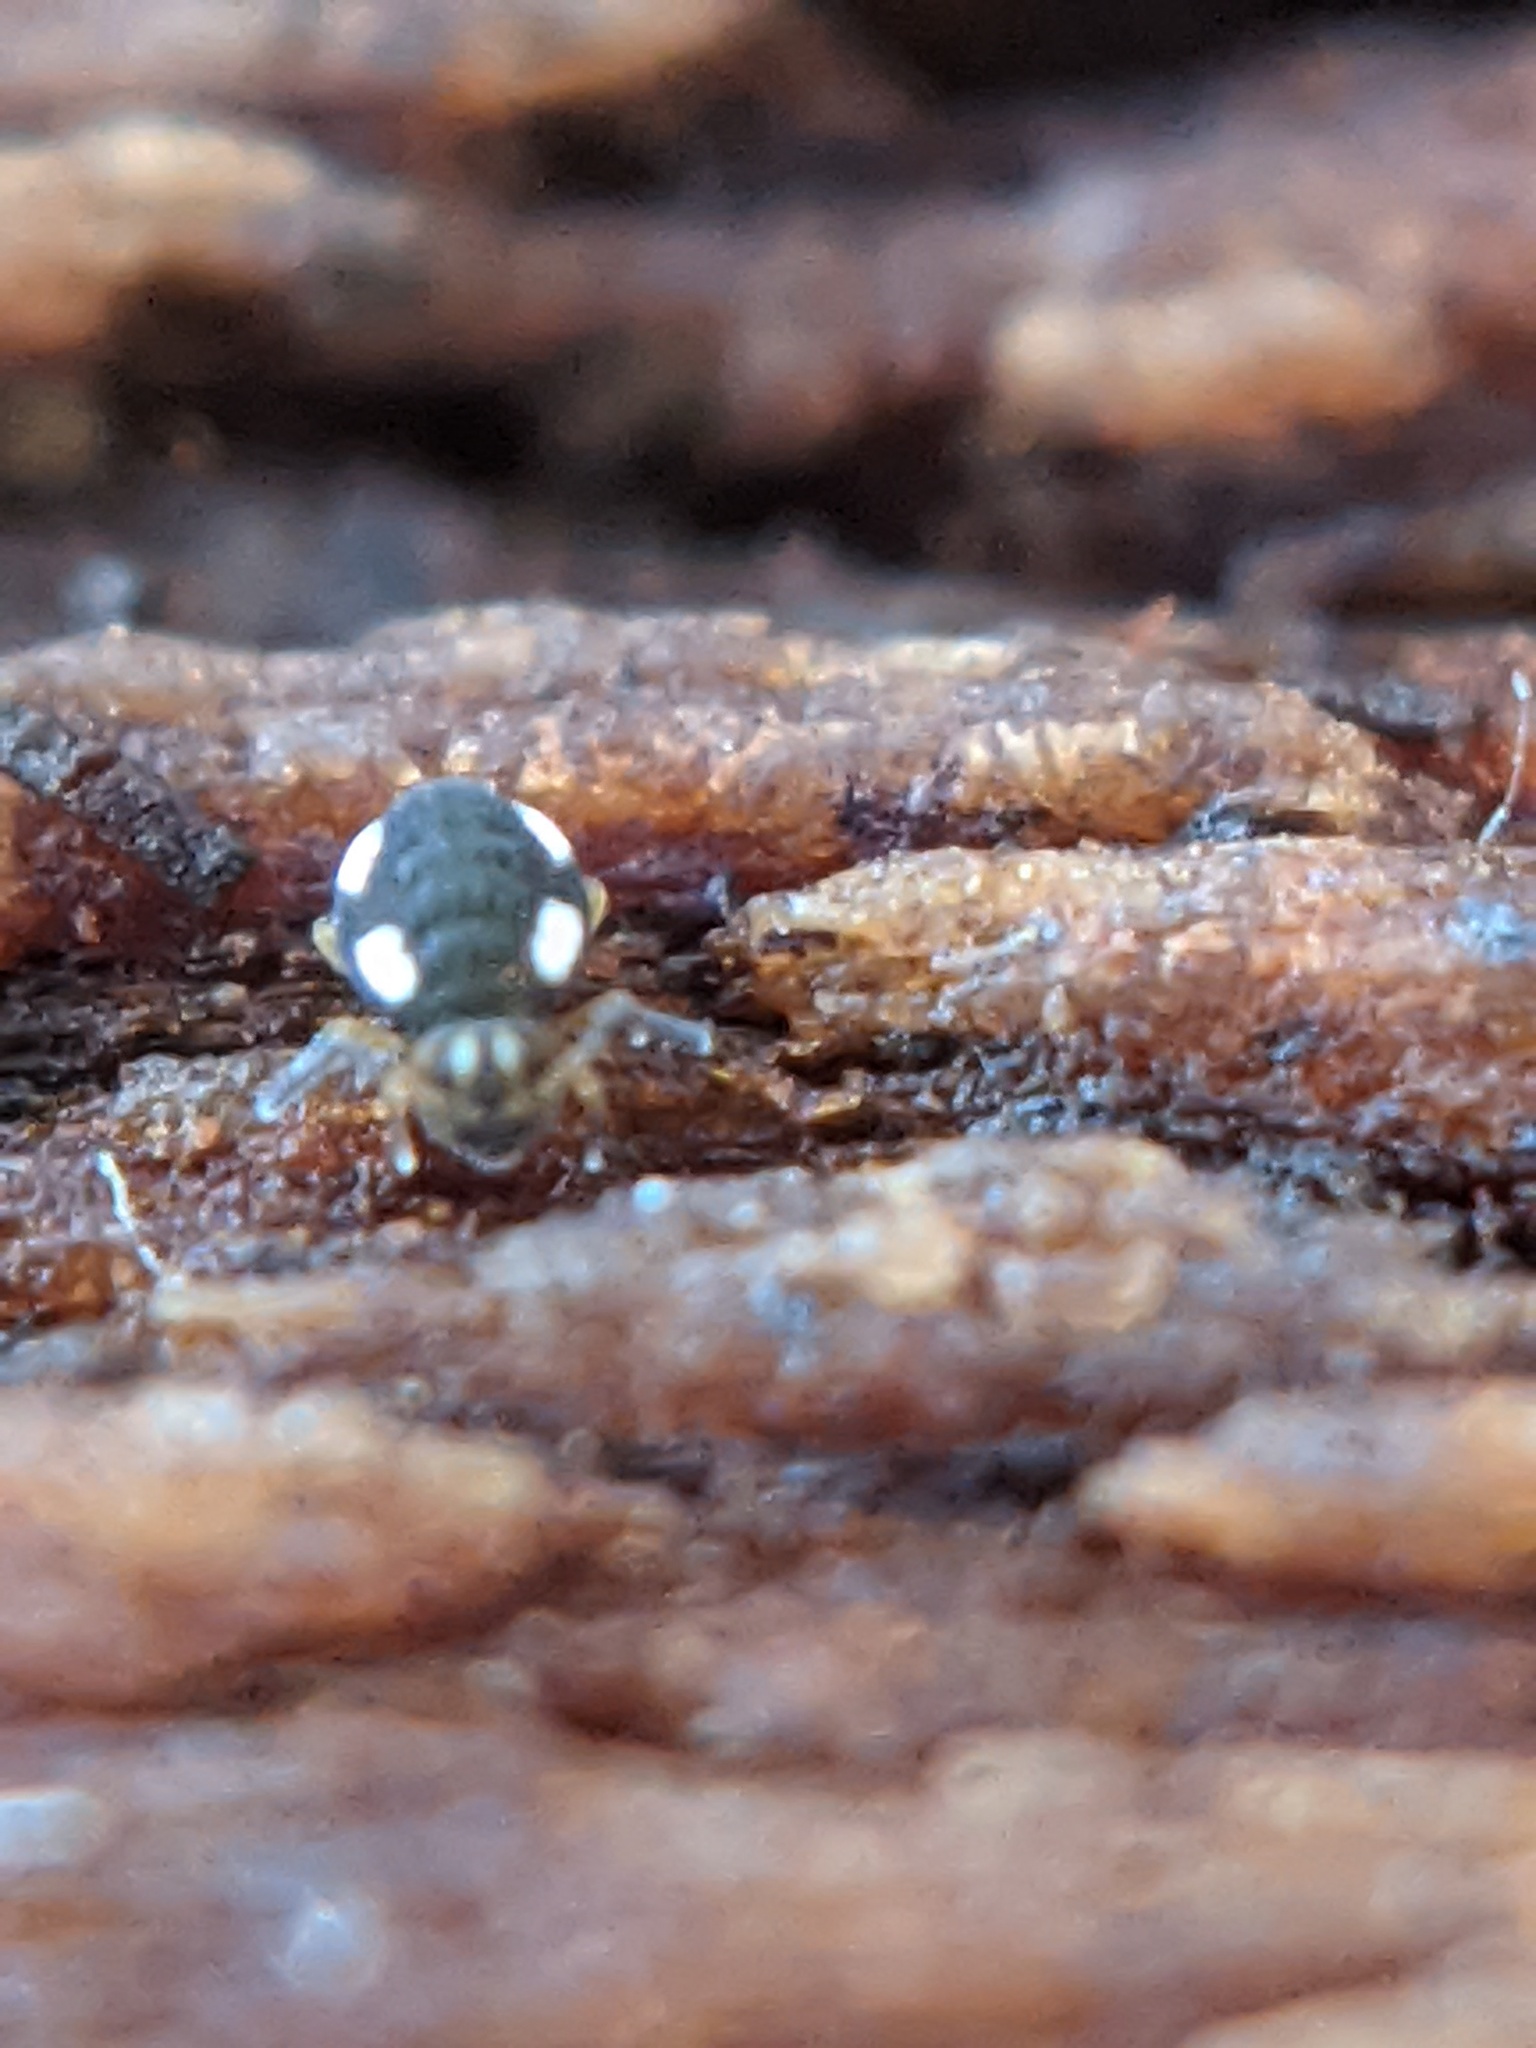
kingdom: Animalia
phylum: Arthropoda
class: Collembola
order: Symphypleona
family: Katiannidae
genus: Sminthurinus
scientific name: Sminthurinus quadrimaculatus
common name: Globular springtail
